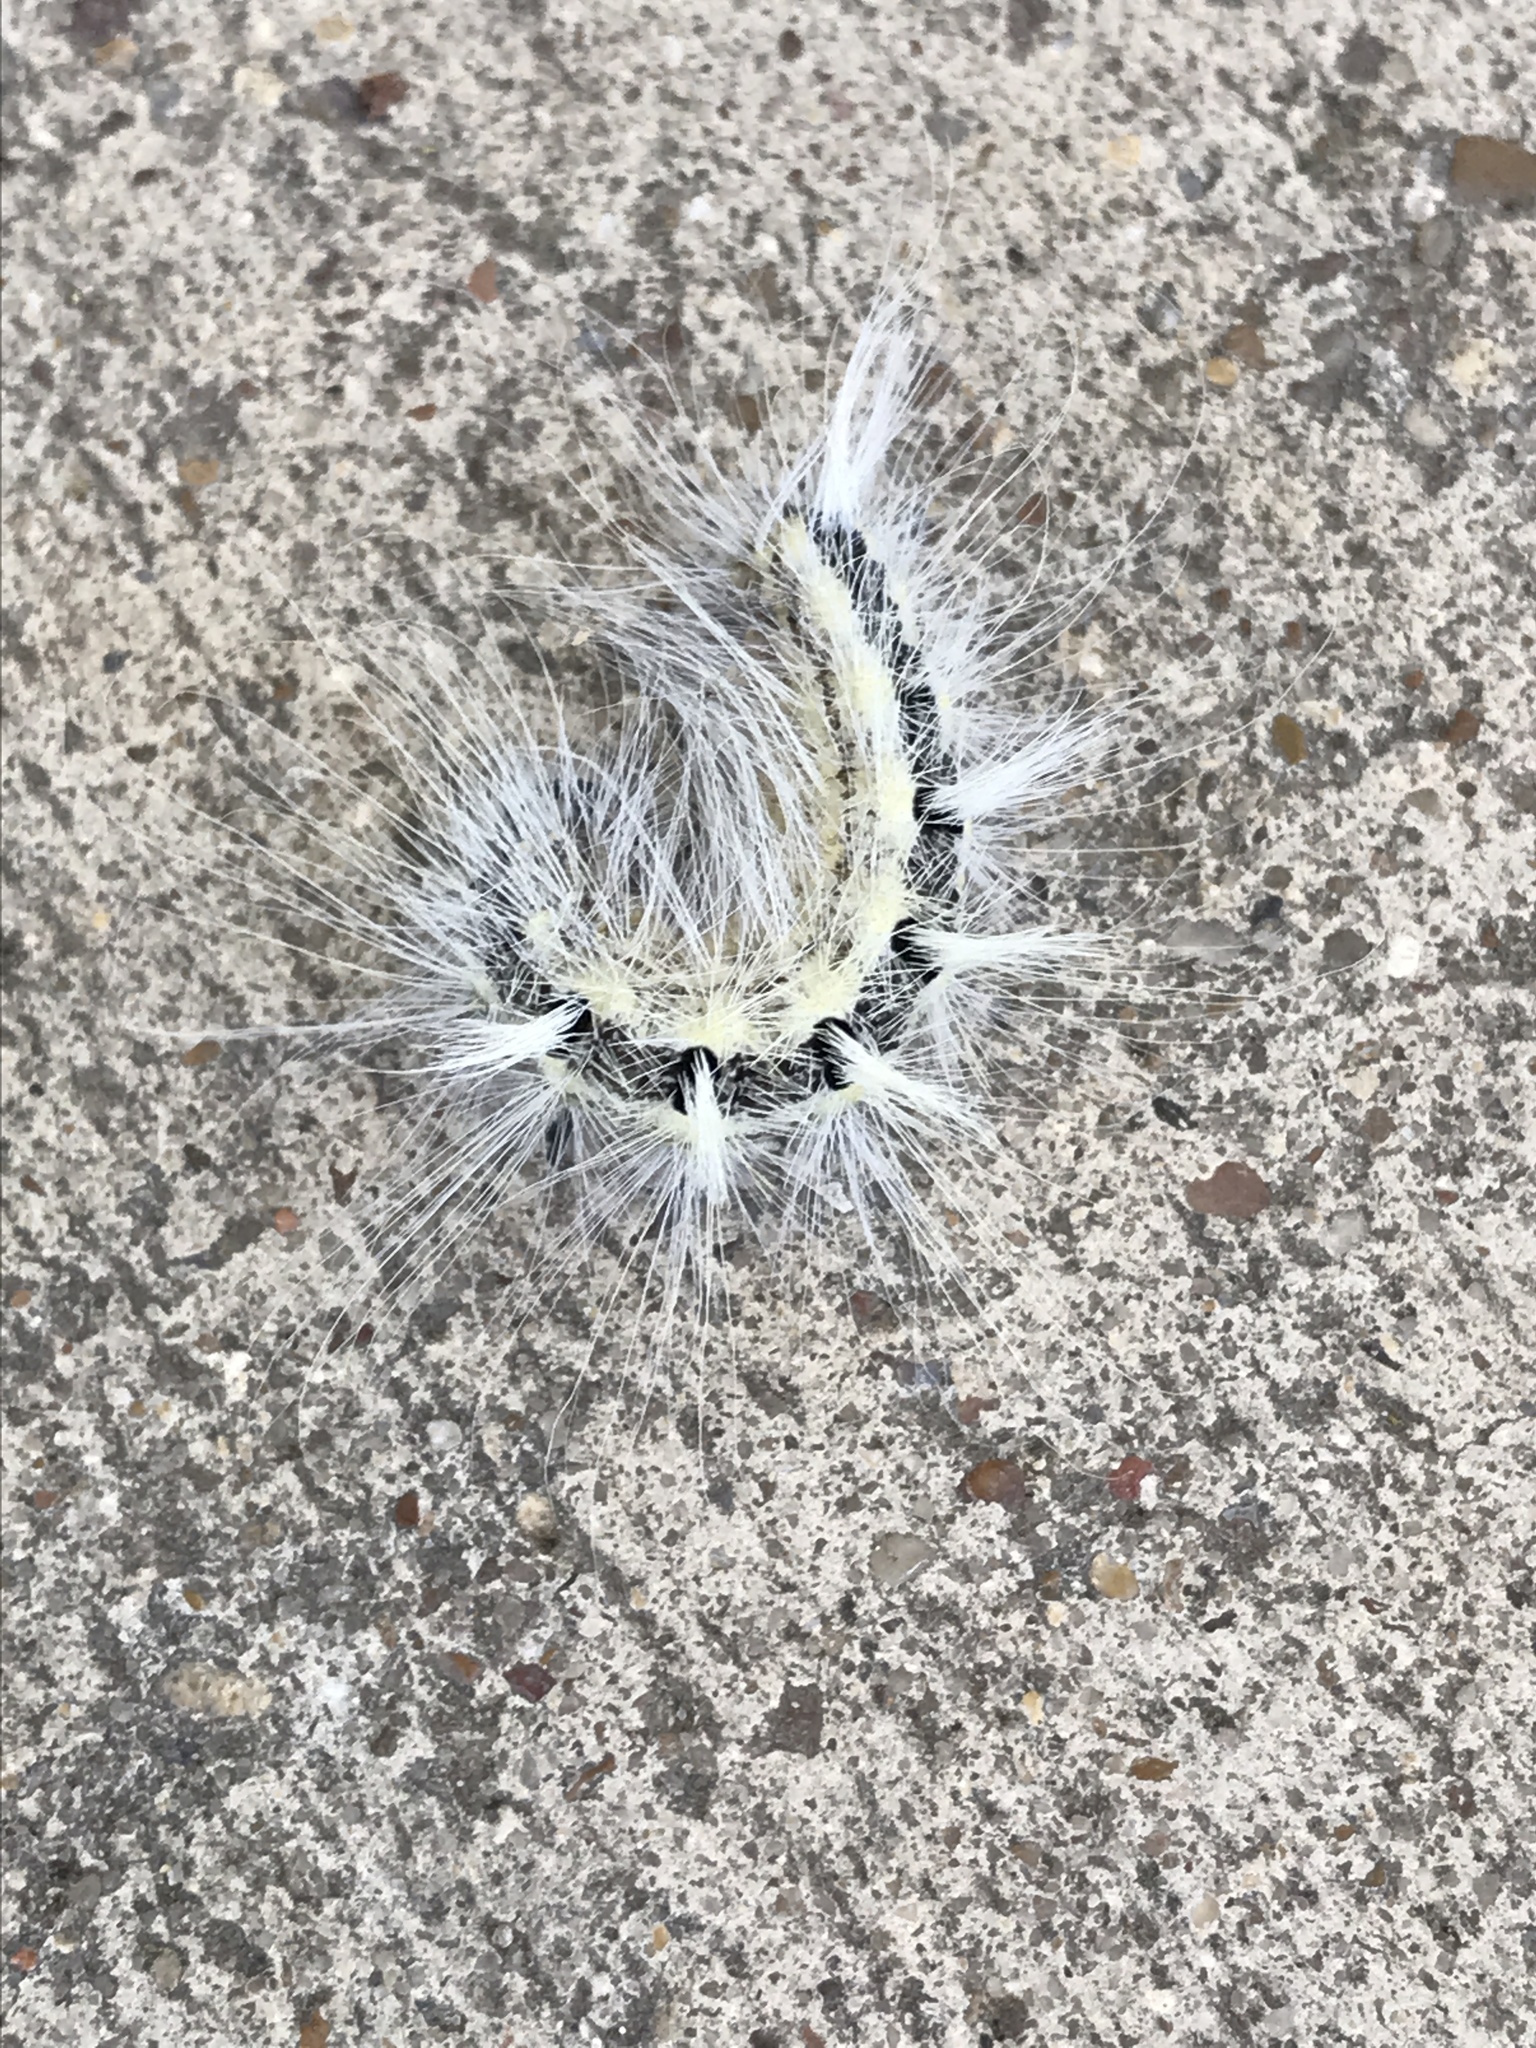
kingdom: Animalia
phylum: Arthropoda
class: Insecta
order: Lepidoptera
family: Noctuidae
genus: Acronicta
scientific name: Acronicta rubricoma
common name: Hackberry dagger
